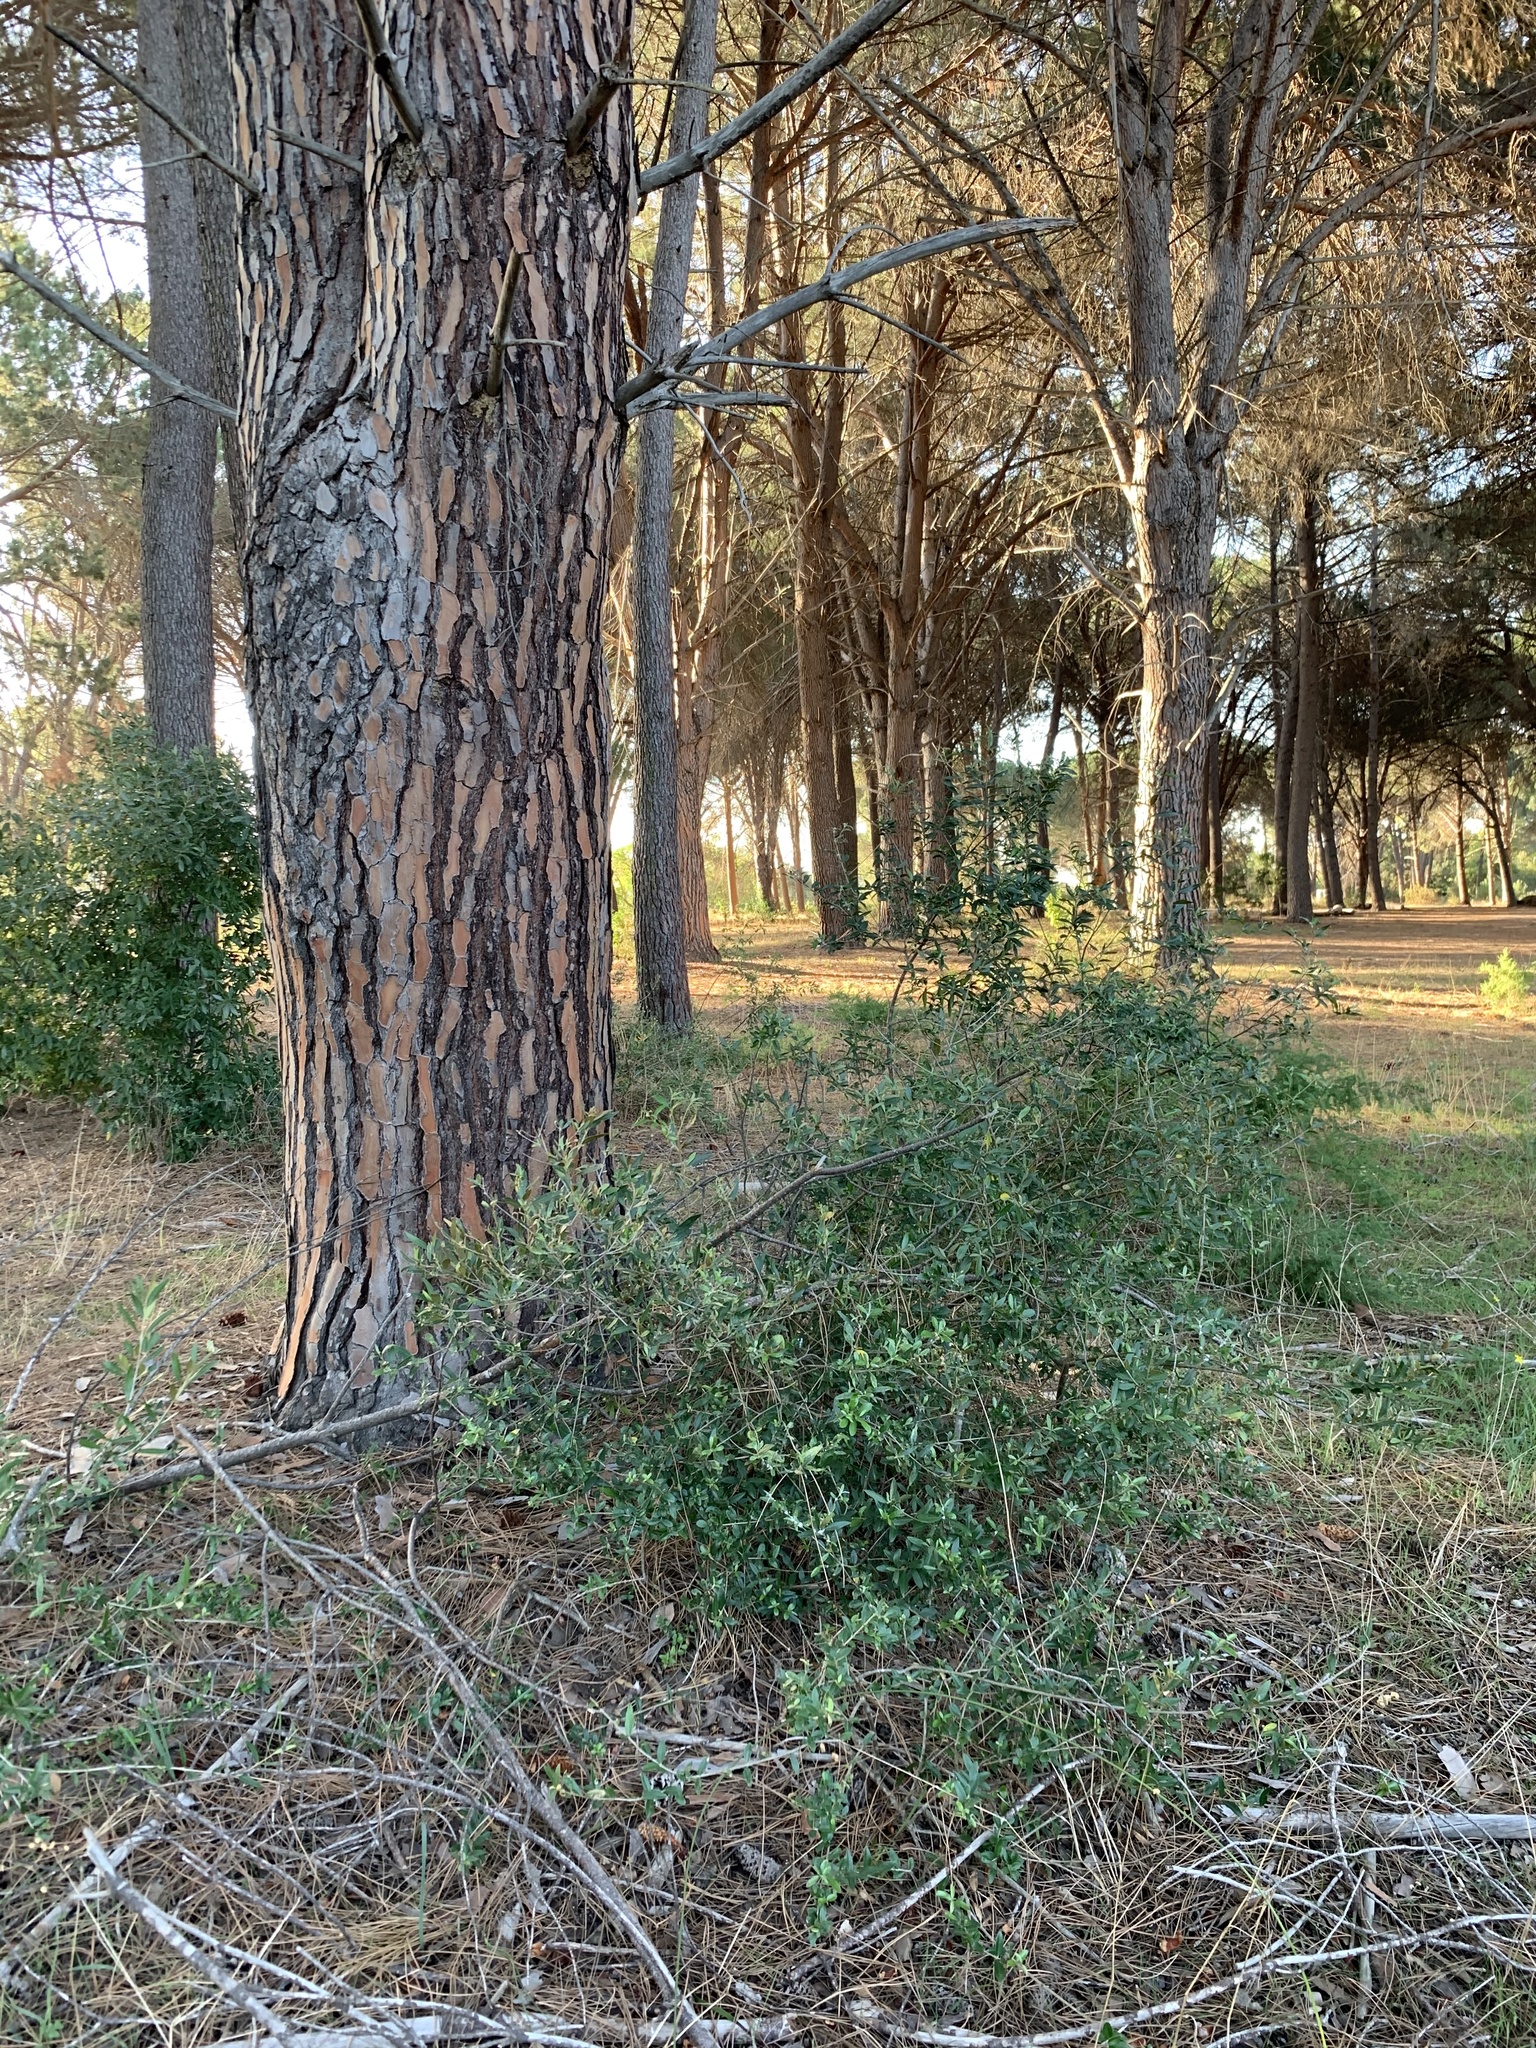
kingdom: Plantae
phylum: Tracheophyta
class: Magnoliopsida
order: Lamiales
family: Oleaceae
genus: Olea
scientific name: Olea europaea
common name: Olive
